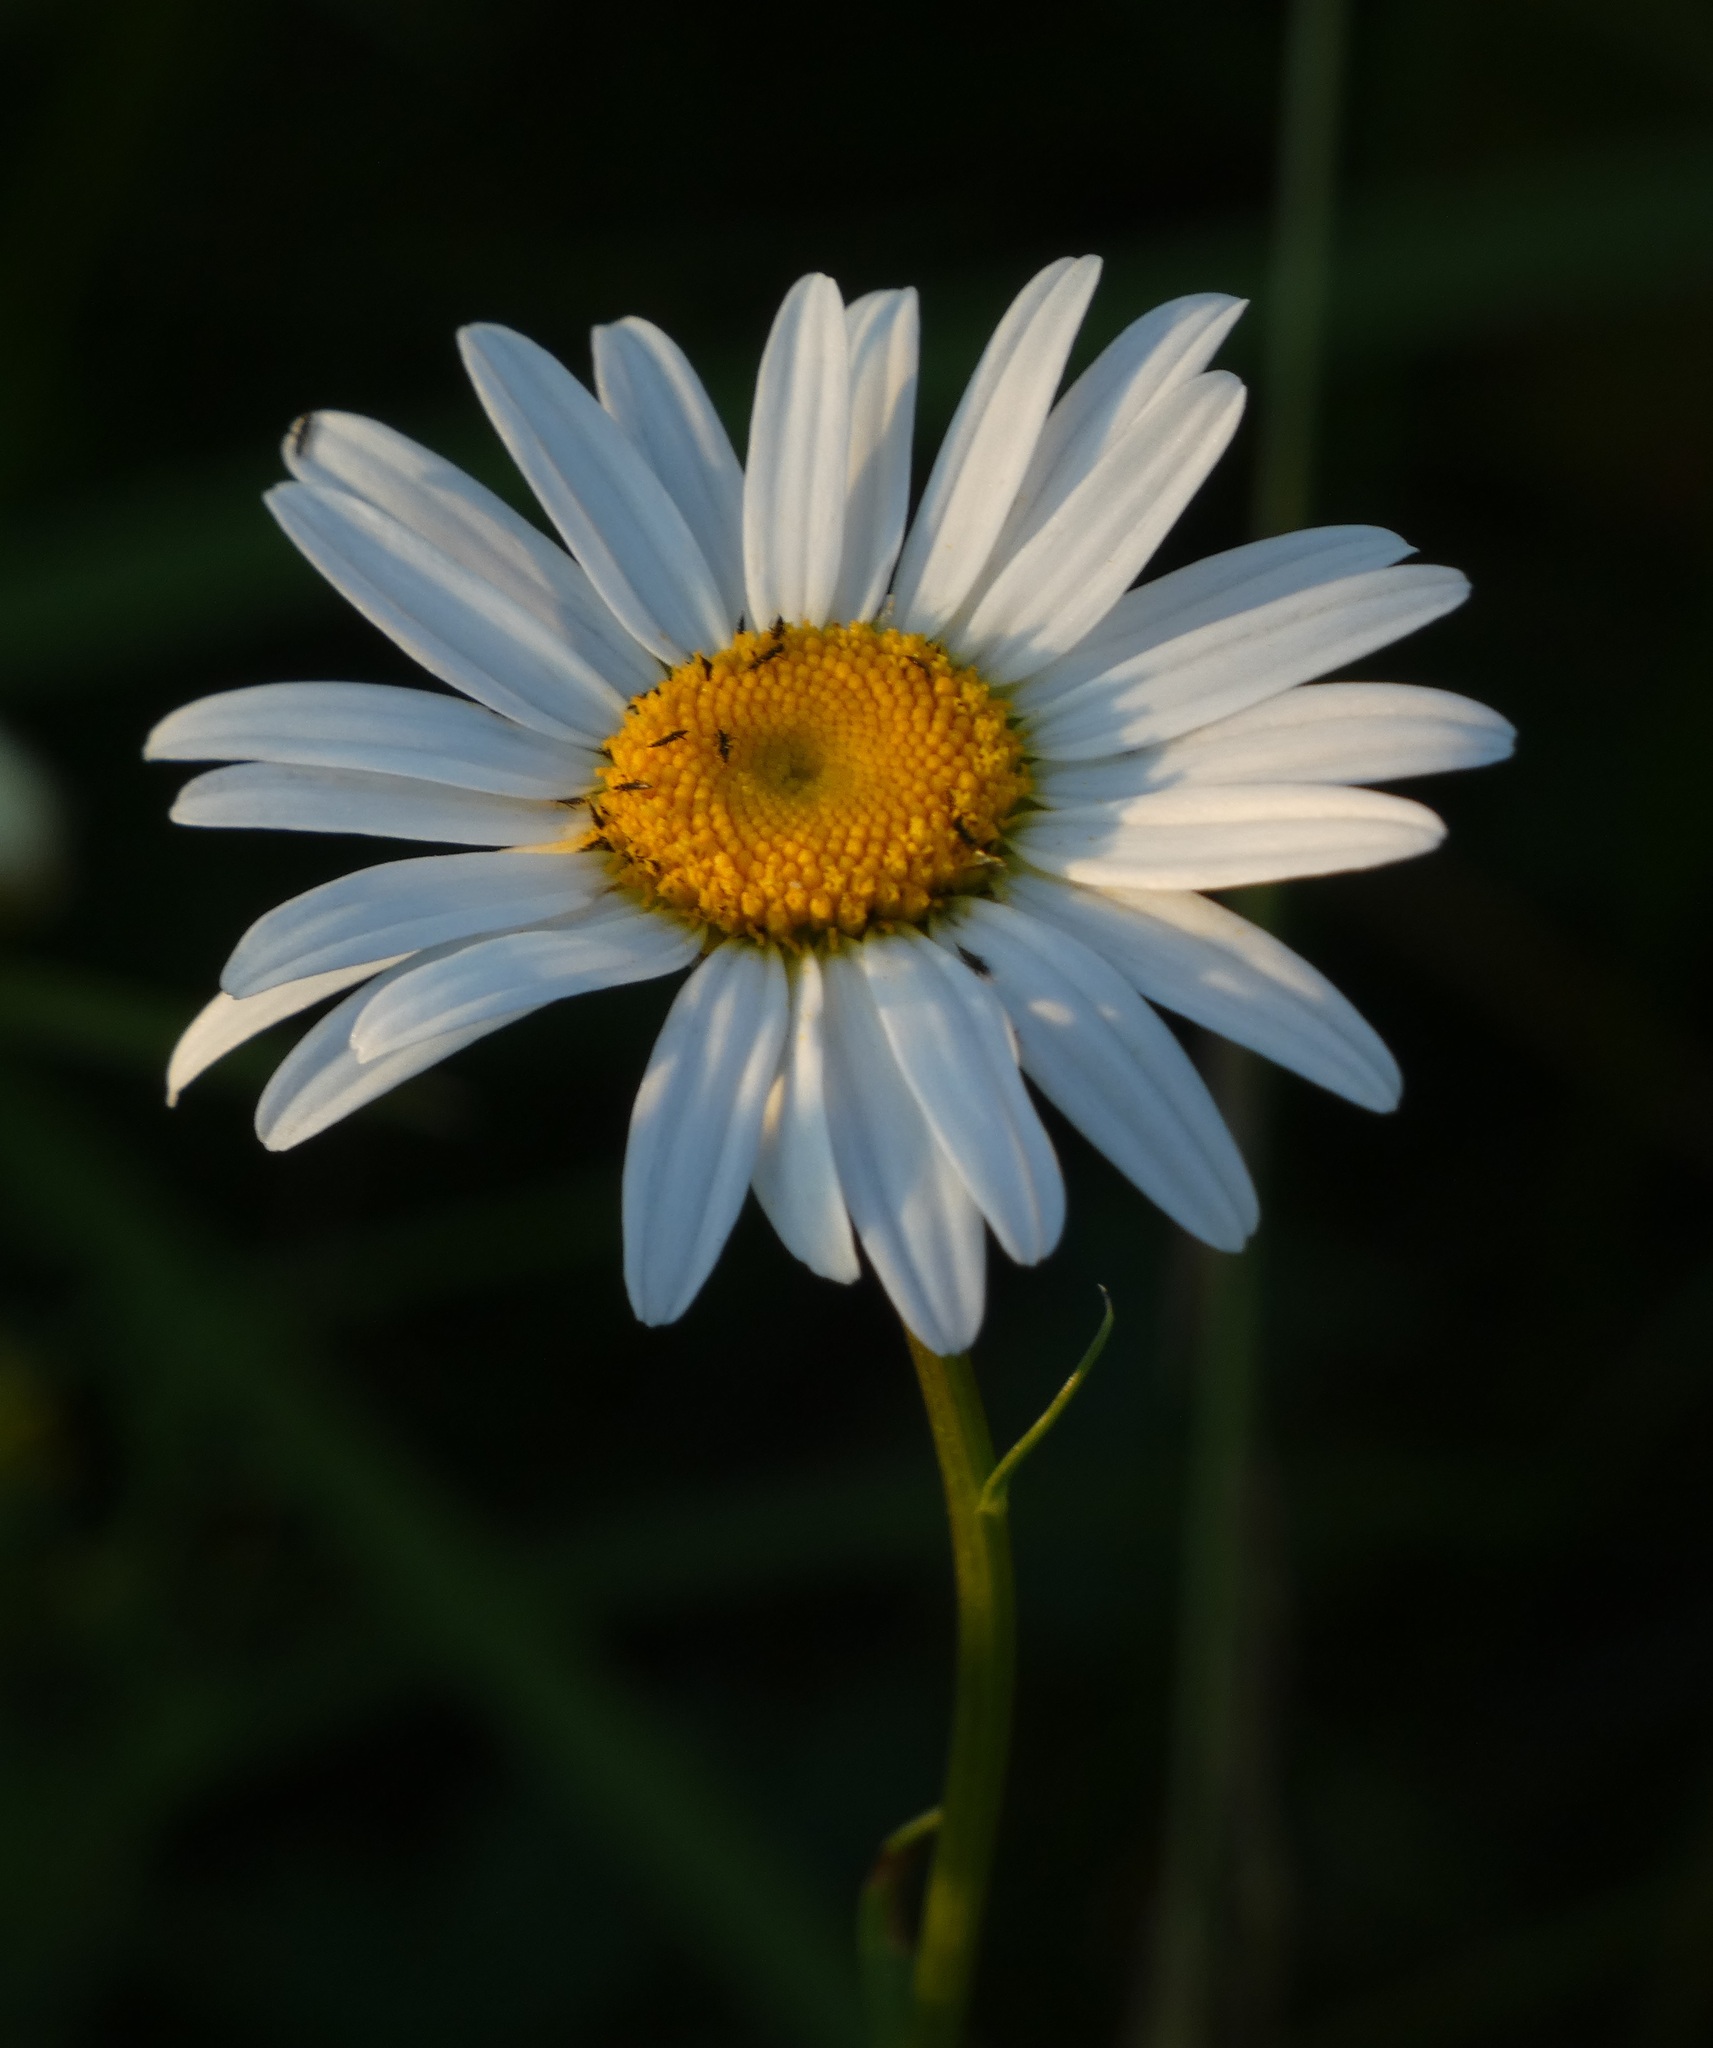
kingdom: Plantae
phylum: Tracheophyta
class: Magnoliopsida
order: Asterales
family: Asteraceae
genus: Leucanthemum
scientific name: Leucanthemum vulgare
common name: Oxeye daisy
